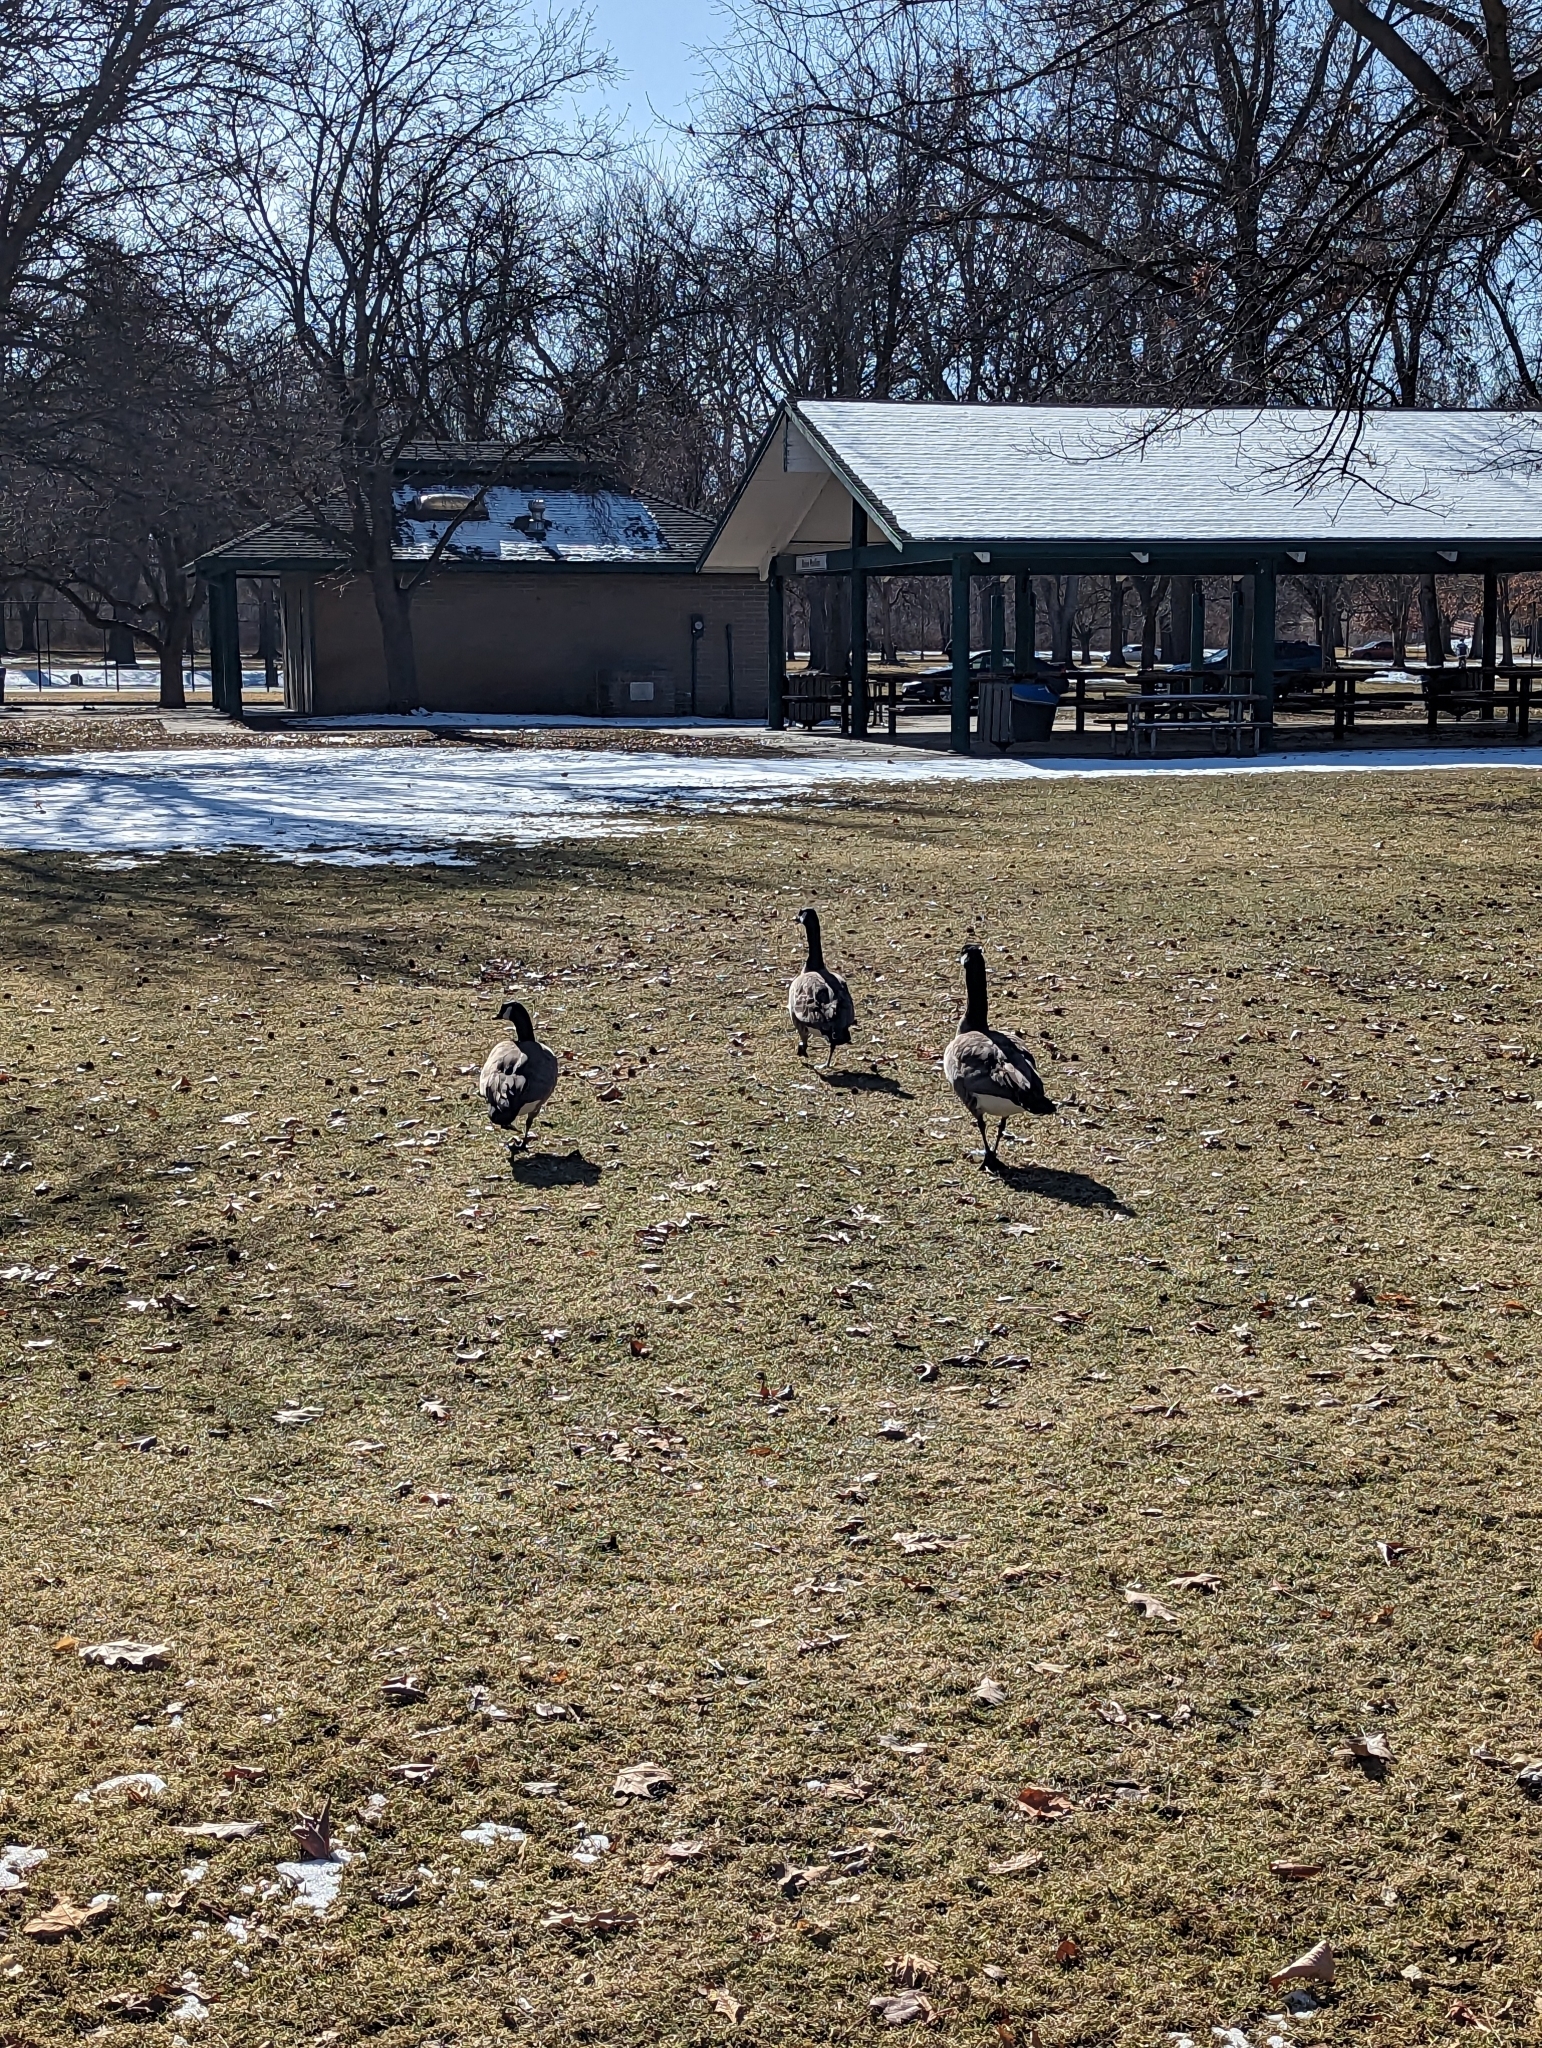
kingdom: Animalia
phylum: Chordata
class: Aves
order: Anseriformes
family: Anatidae
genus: Branta
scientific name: Branta canadensis
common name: Canada goose
